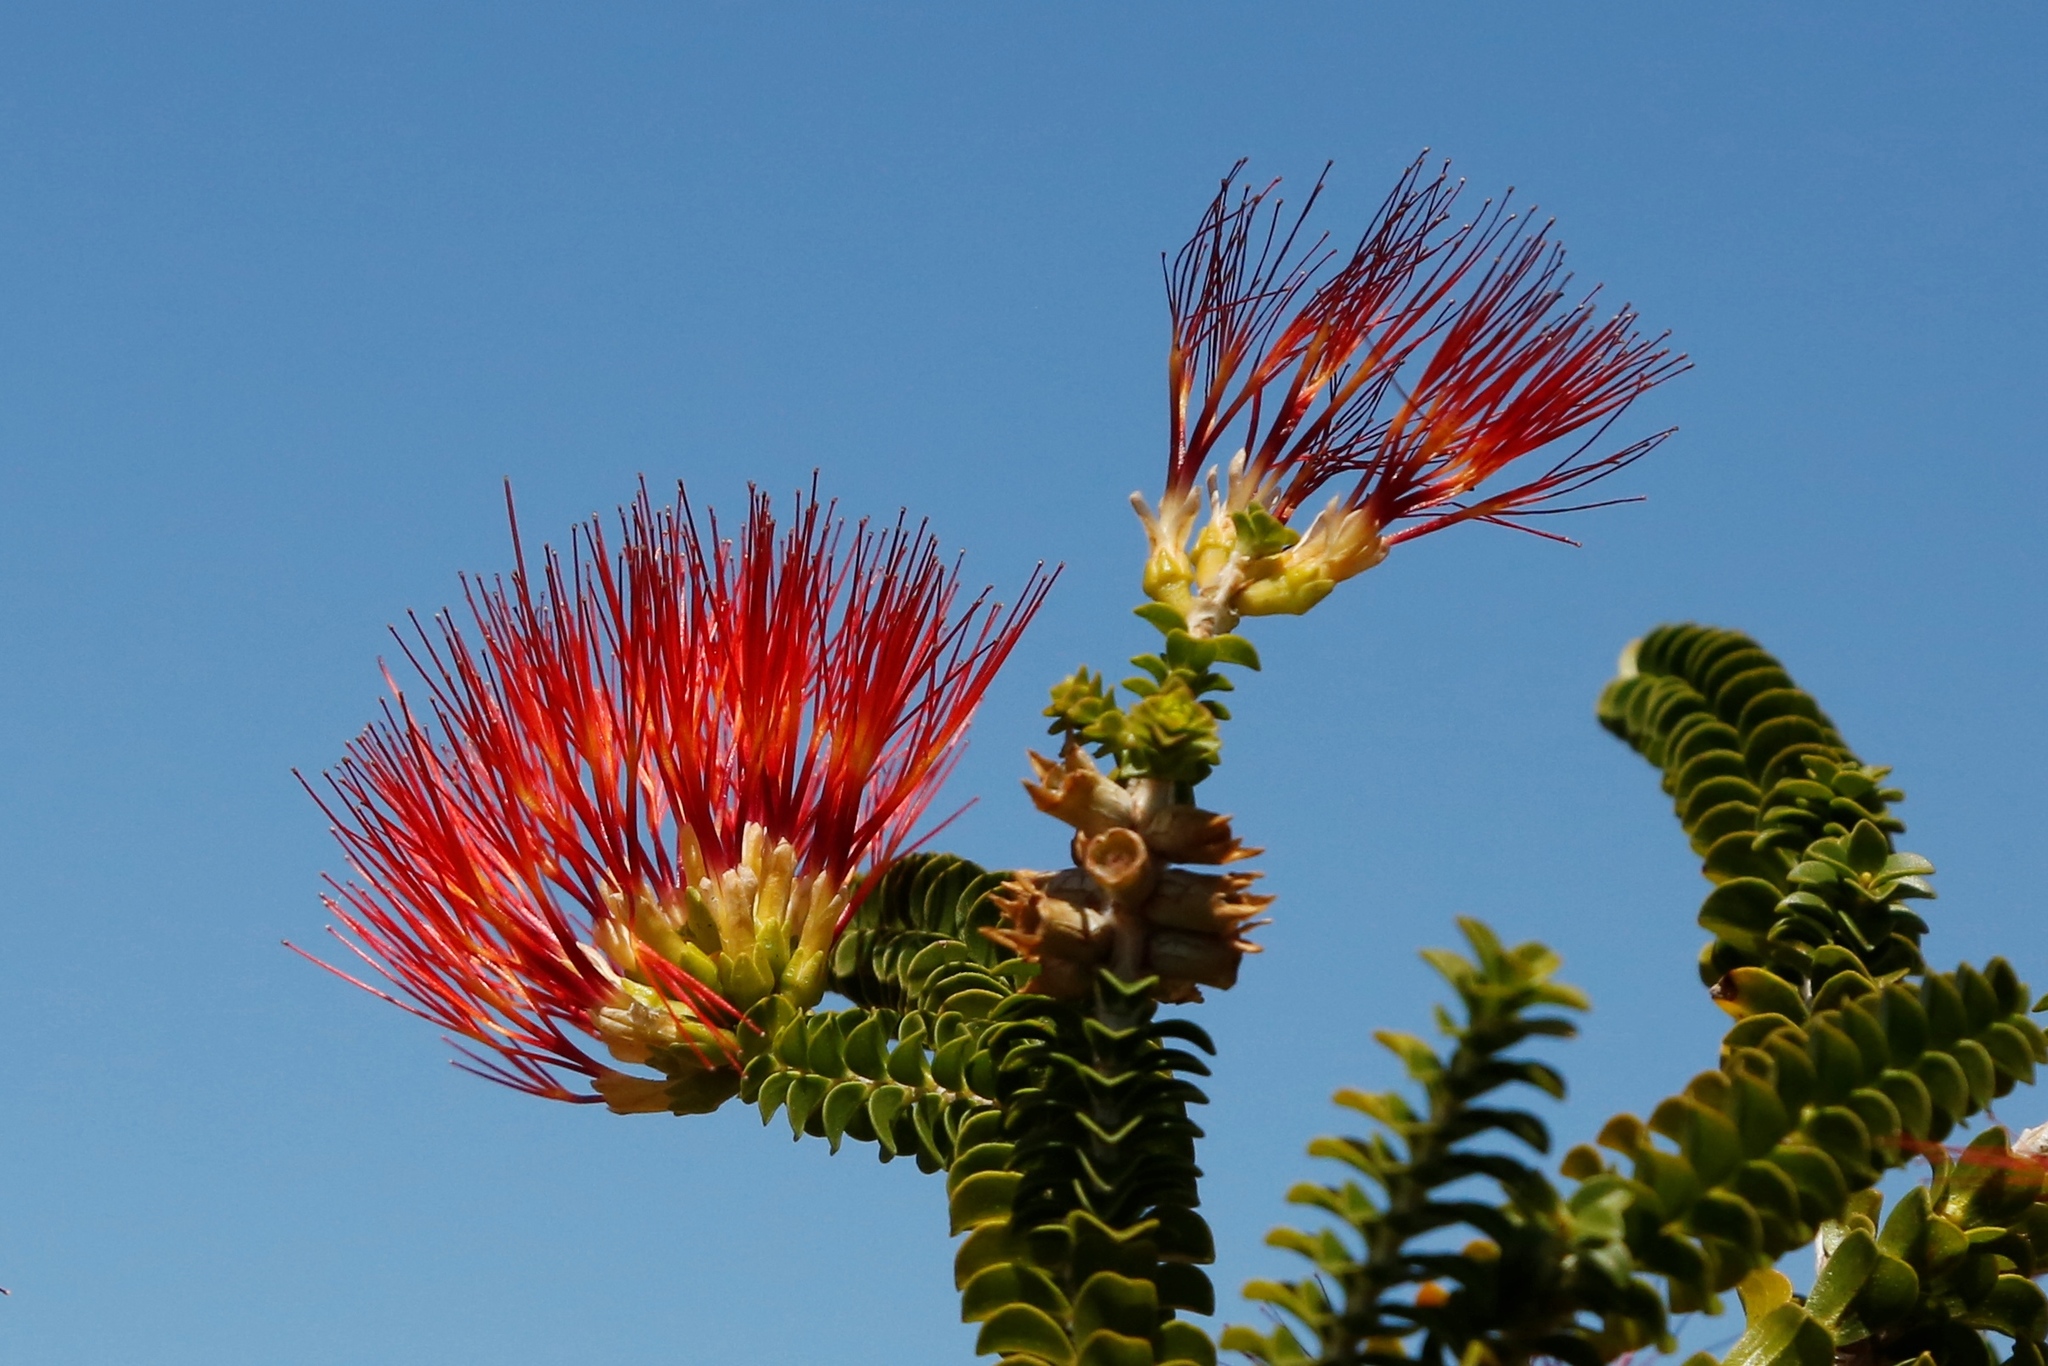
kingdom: Plantae
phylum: Tracheophyta
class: Magnoliopsida
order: Myrtales
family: Myrtaceae
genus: Melaleuca
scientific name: Melaleuca aestiva
